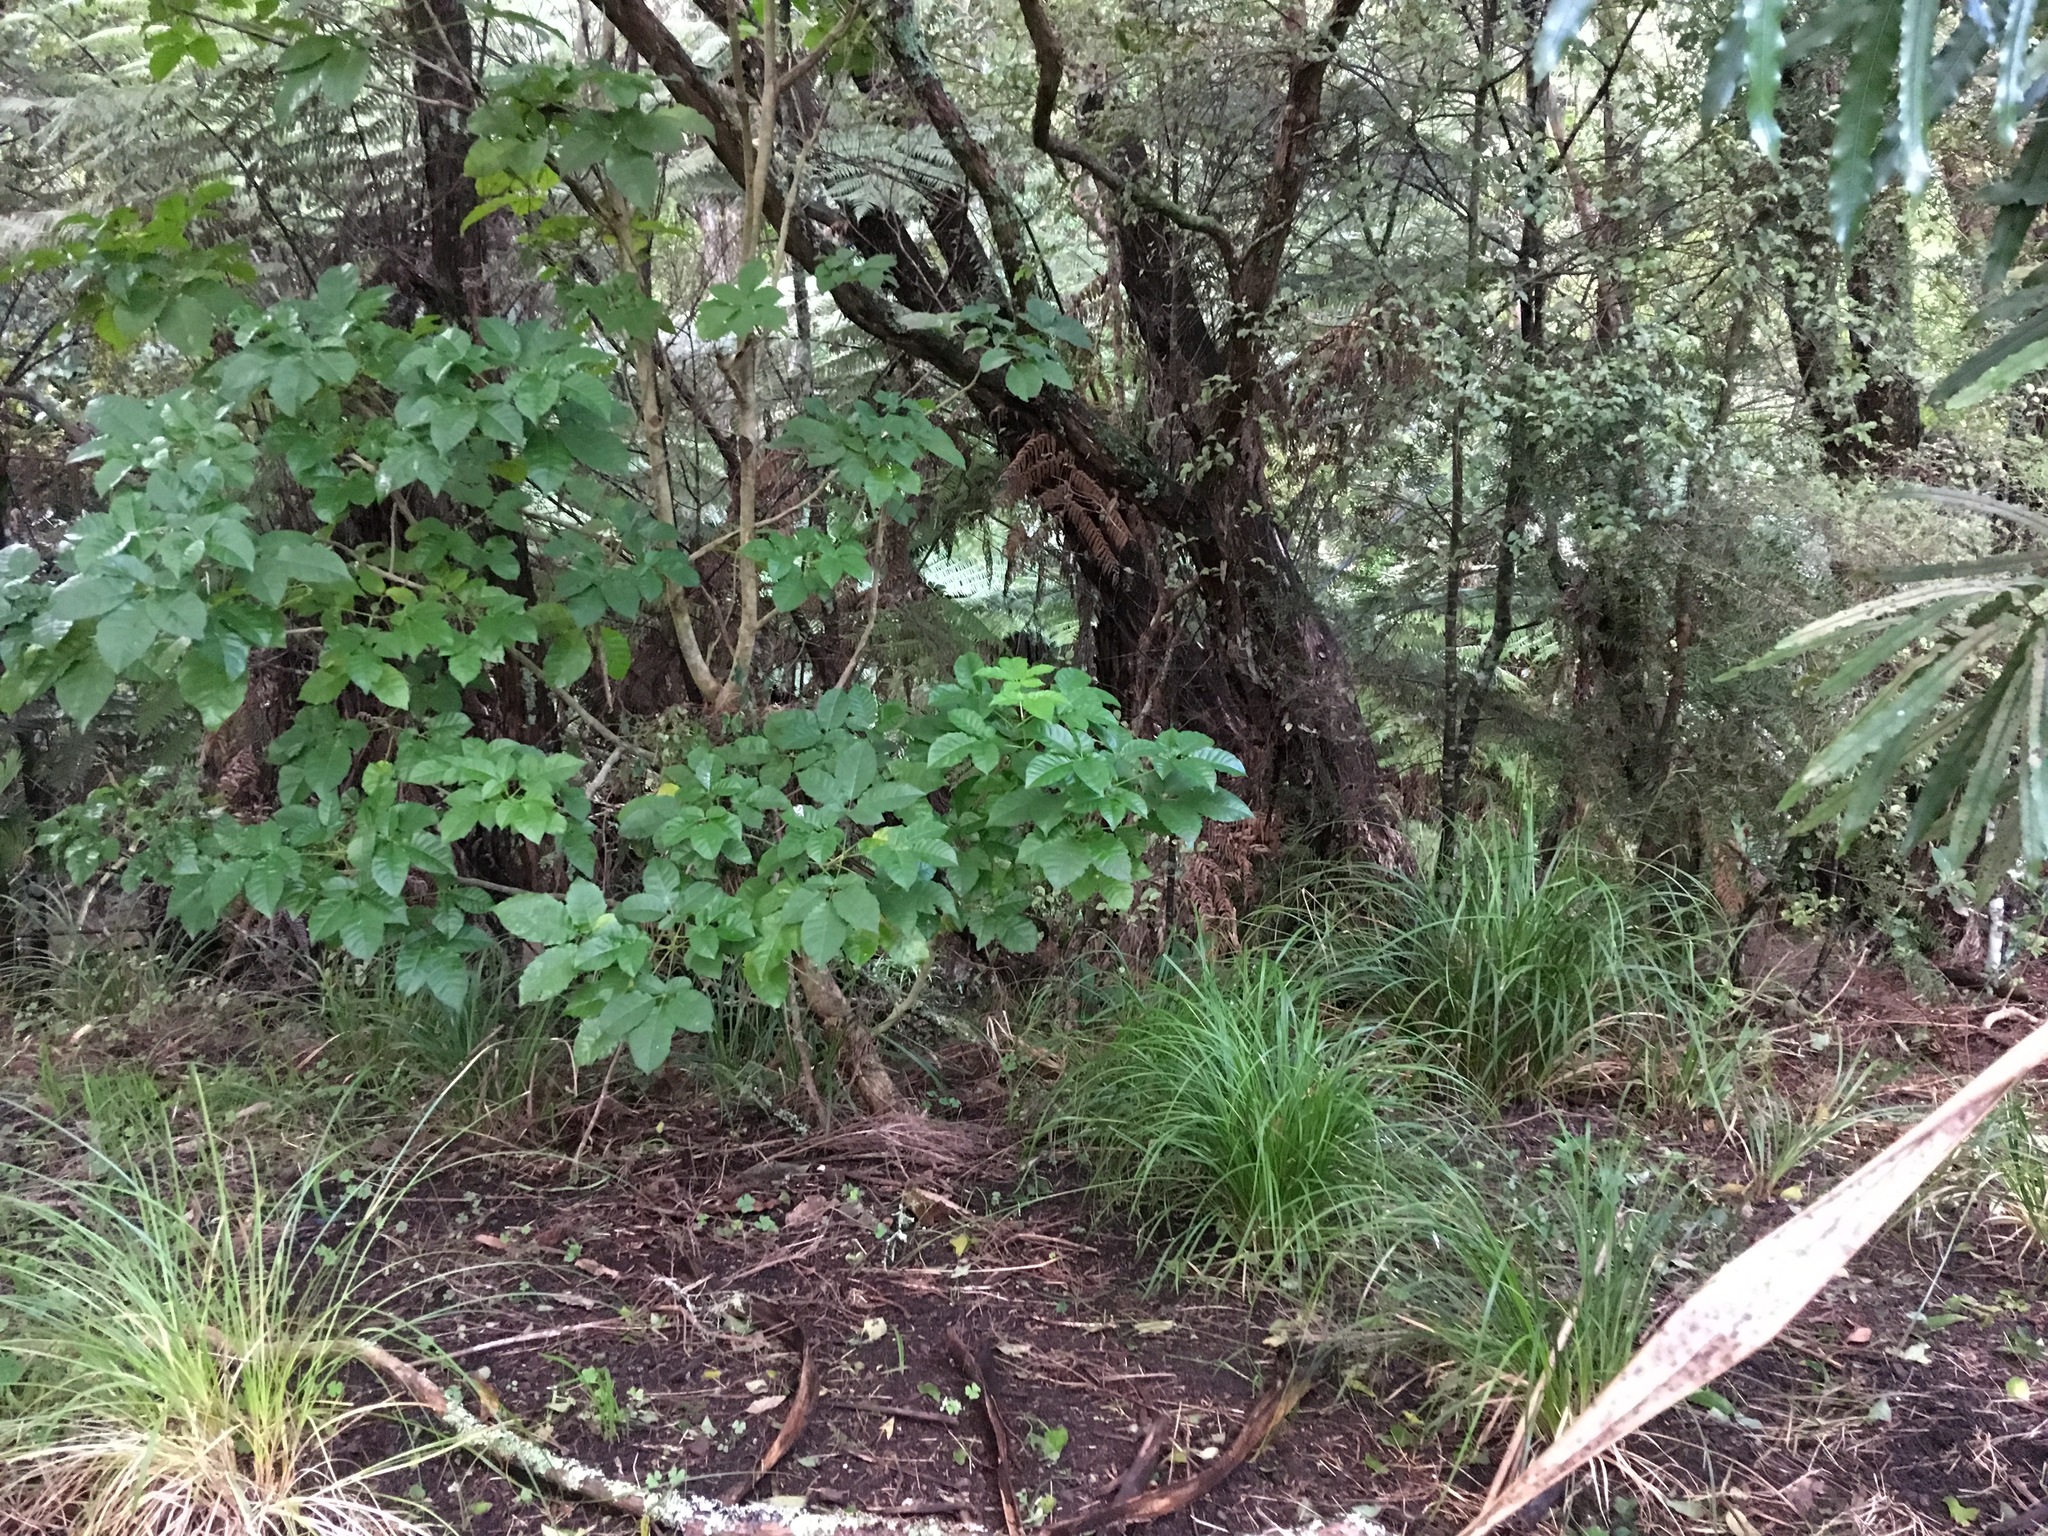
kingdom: Plantae
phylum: Tracheophyta
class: Magnoliopsida
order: Lamiales
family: Lamiaceae
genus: Vitex
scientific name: Vitex lucens
